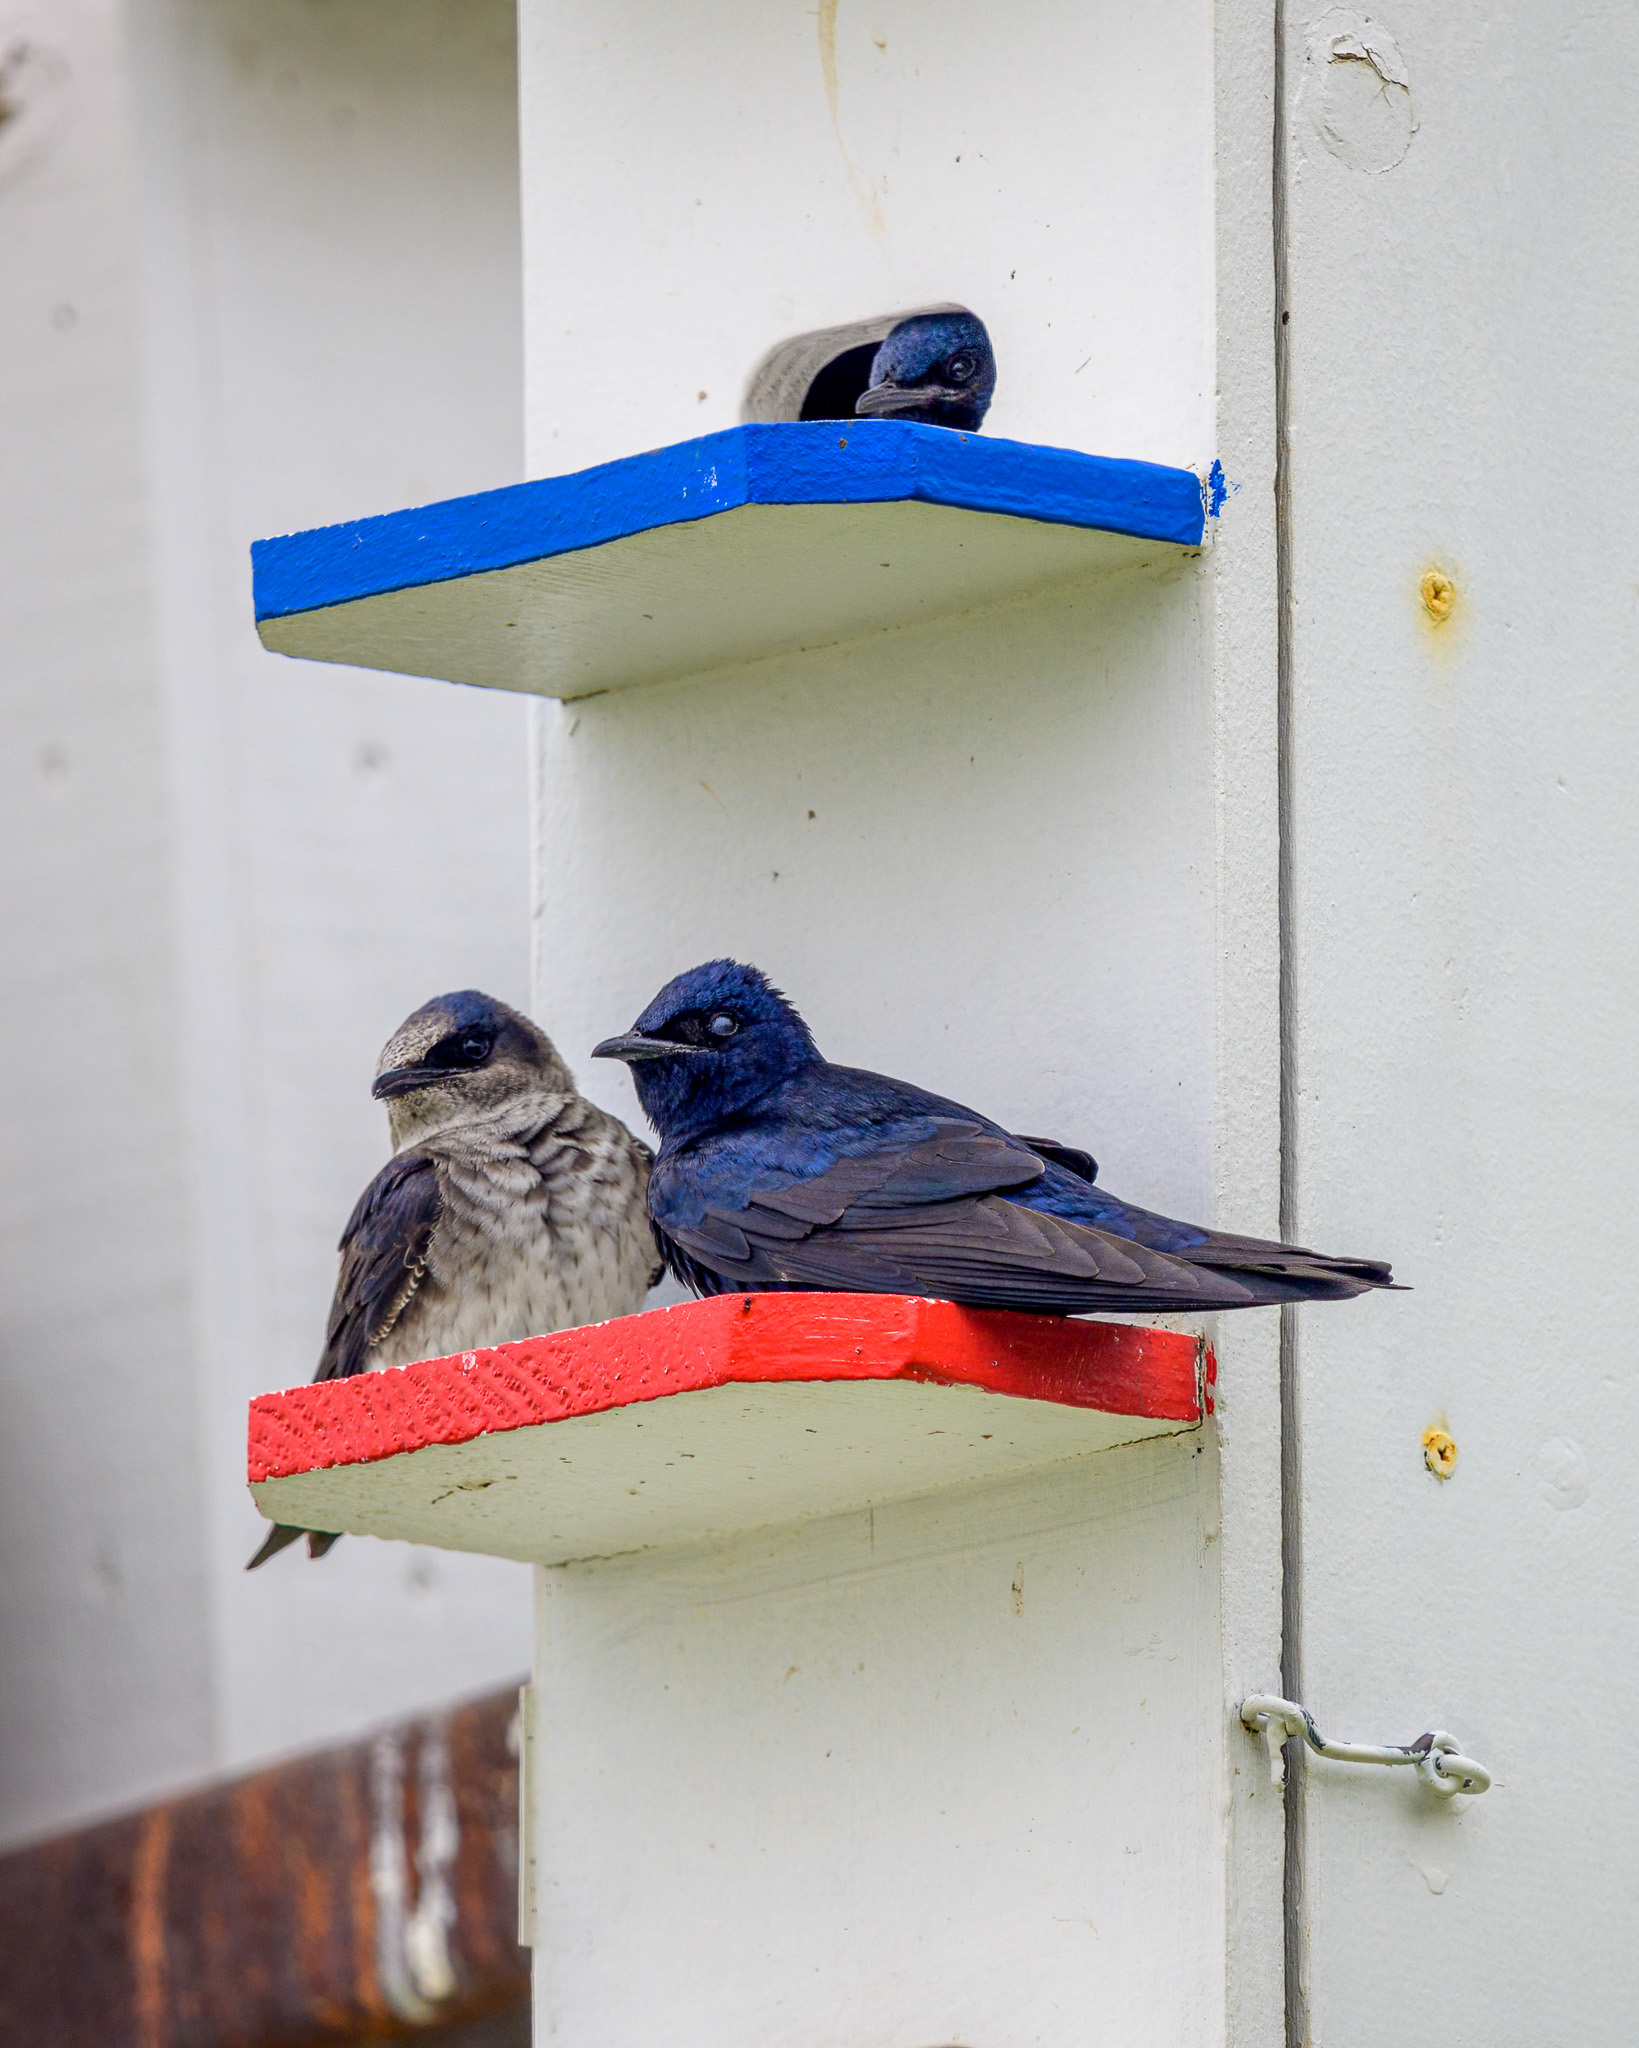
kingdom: Animalia
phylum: Chordata
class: Aves
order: Passeriformes
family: Hirundinidae
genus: Progne
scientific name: Progne subis
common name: Purple martin
